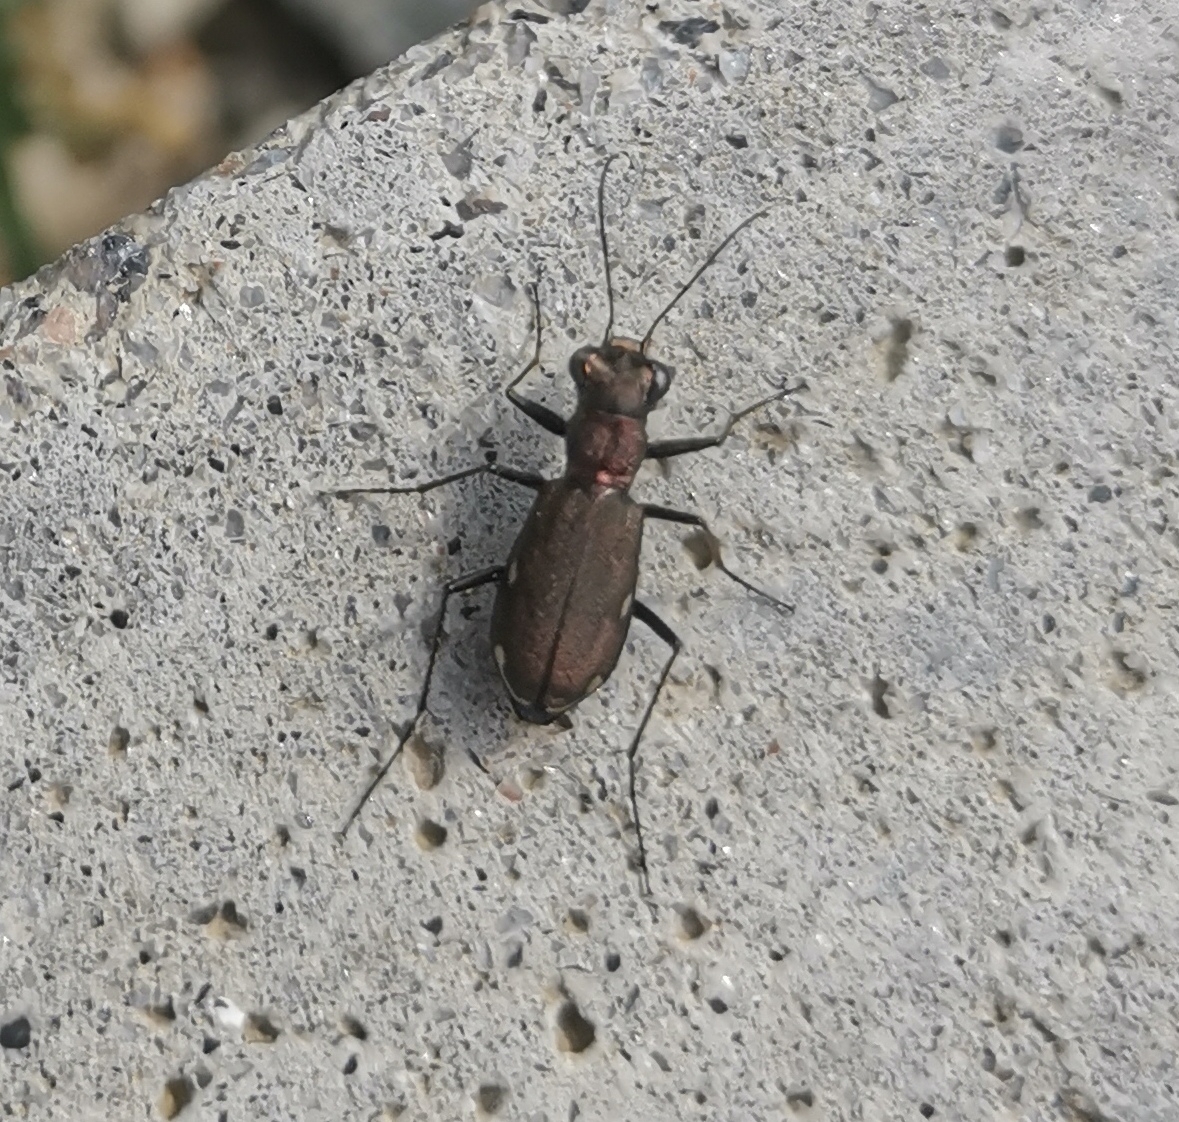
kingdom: Animalia
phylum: Arthropoda
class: Insecta
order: Coleoptera
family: Carabidae
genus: Cylindera
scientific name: Cylindera germanica
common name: Cliff tiger beetle
